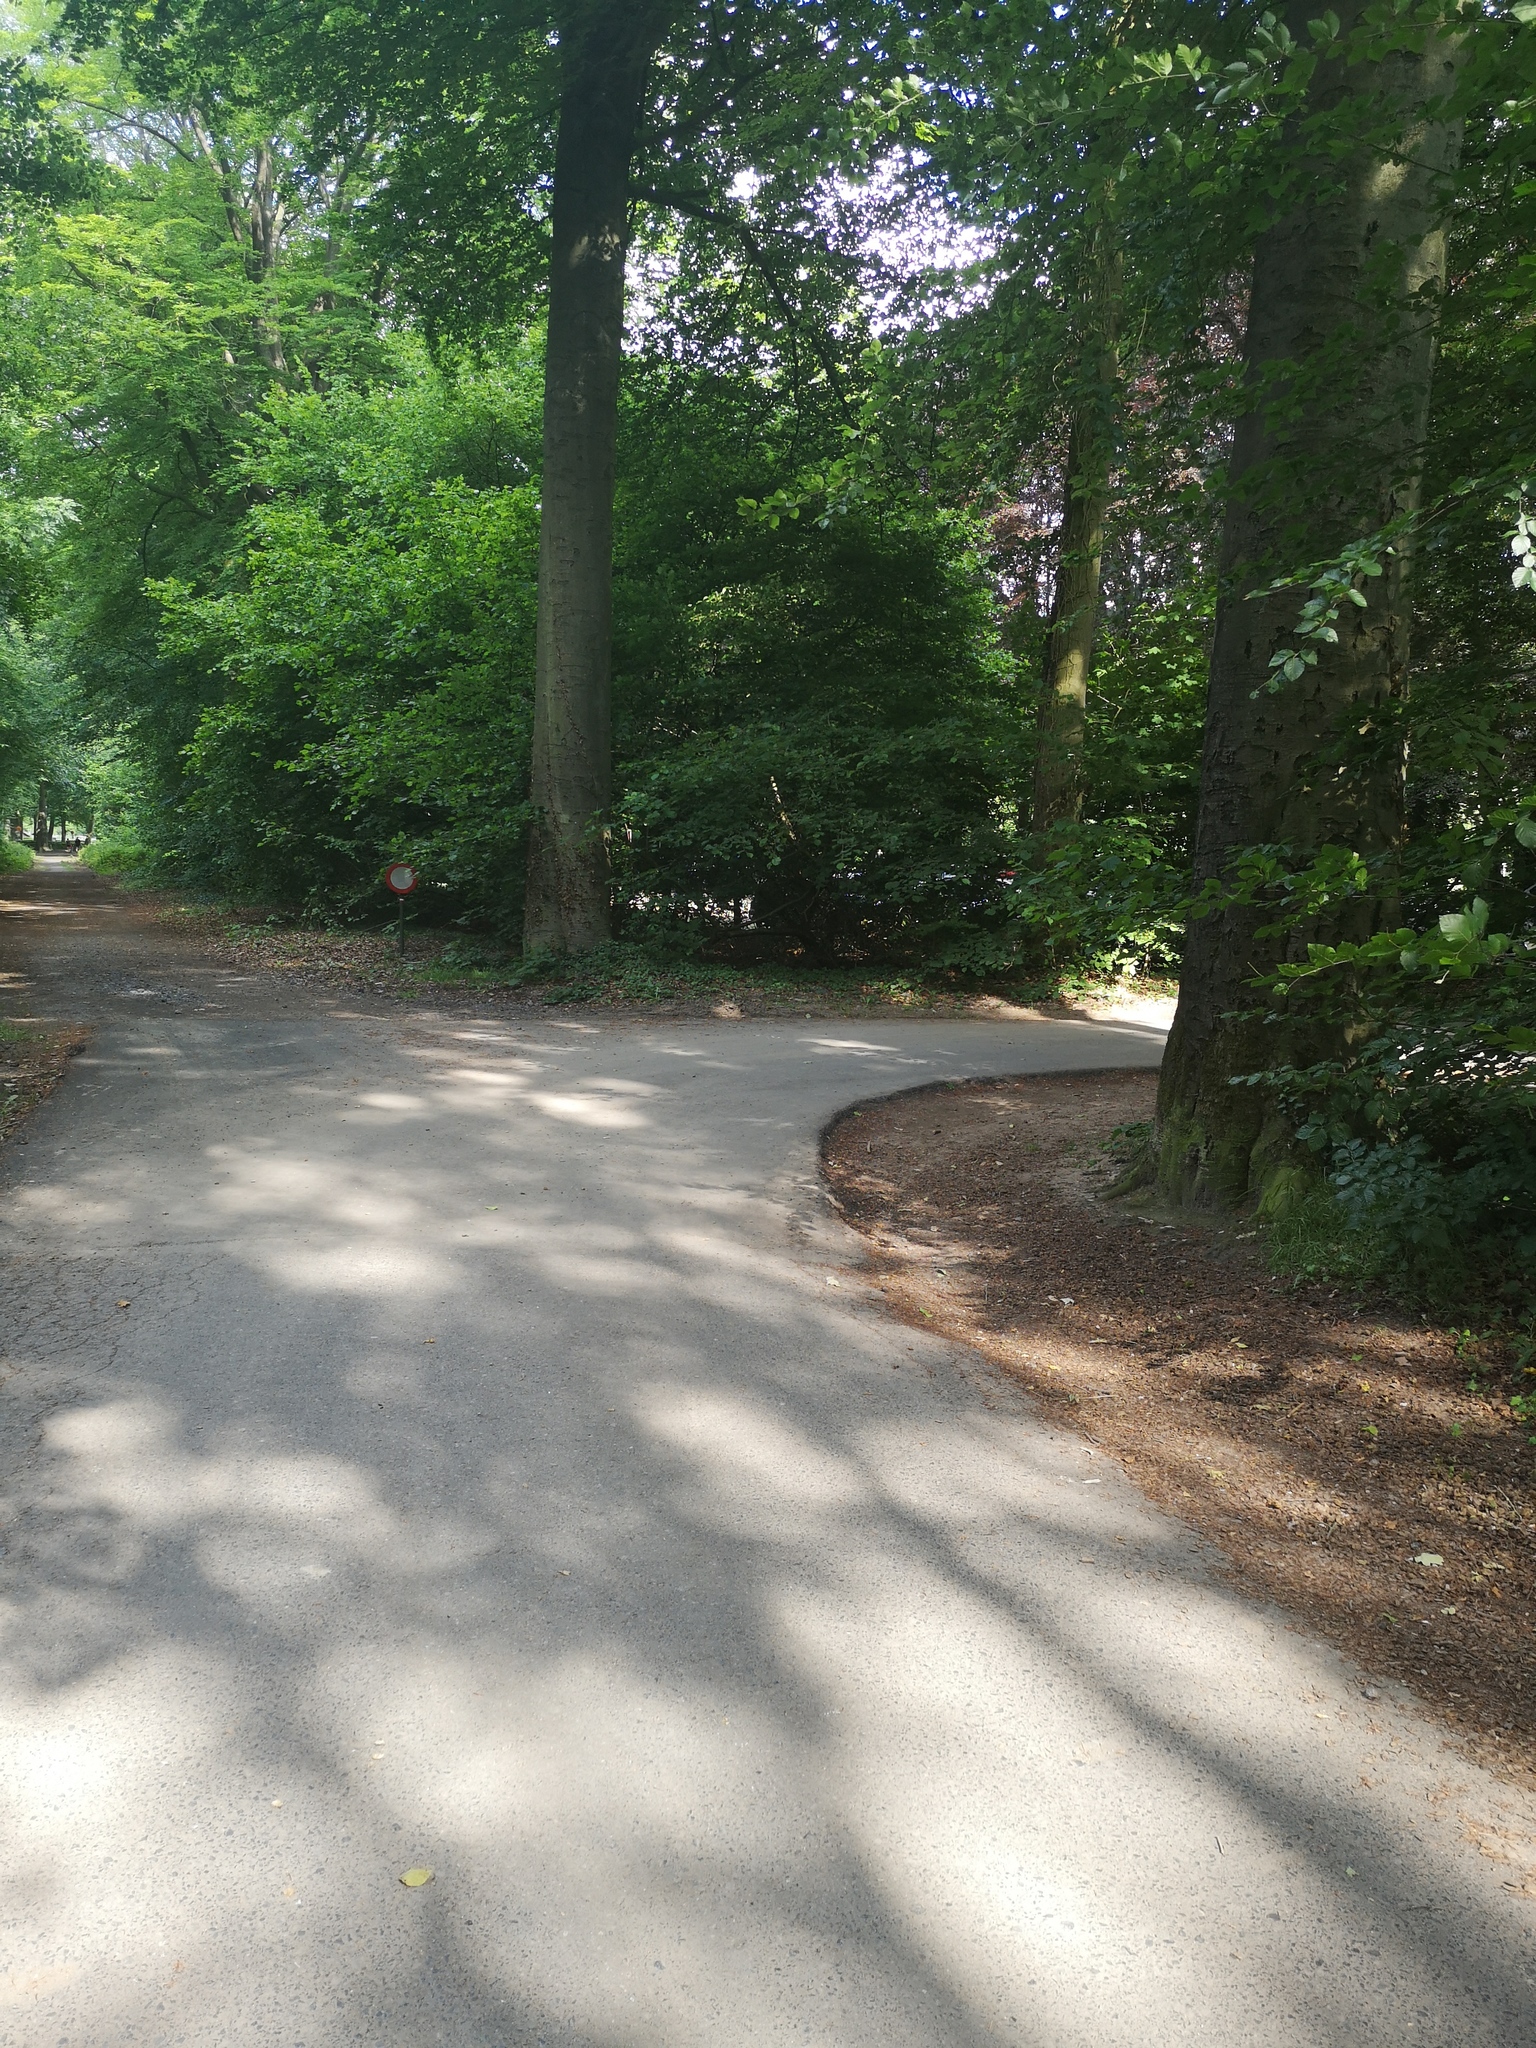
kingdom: Animalia
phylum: Arthropoda
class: Insecta
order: Hymenoptera
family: Vespidae
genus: Vespa
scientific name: Vespa crabro
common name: Hornet
